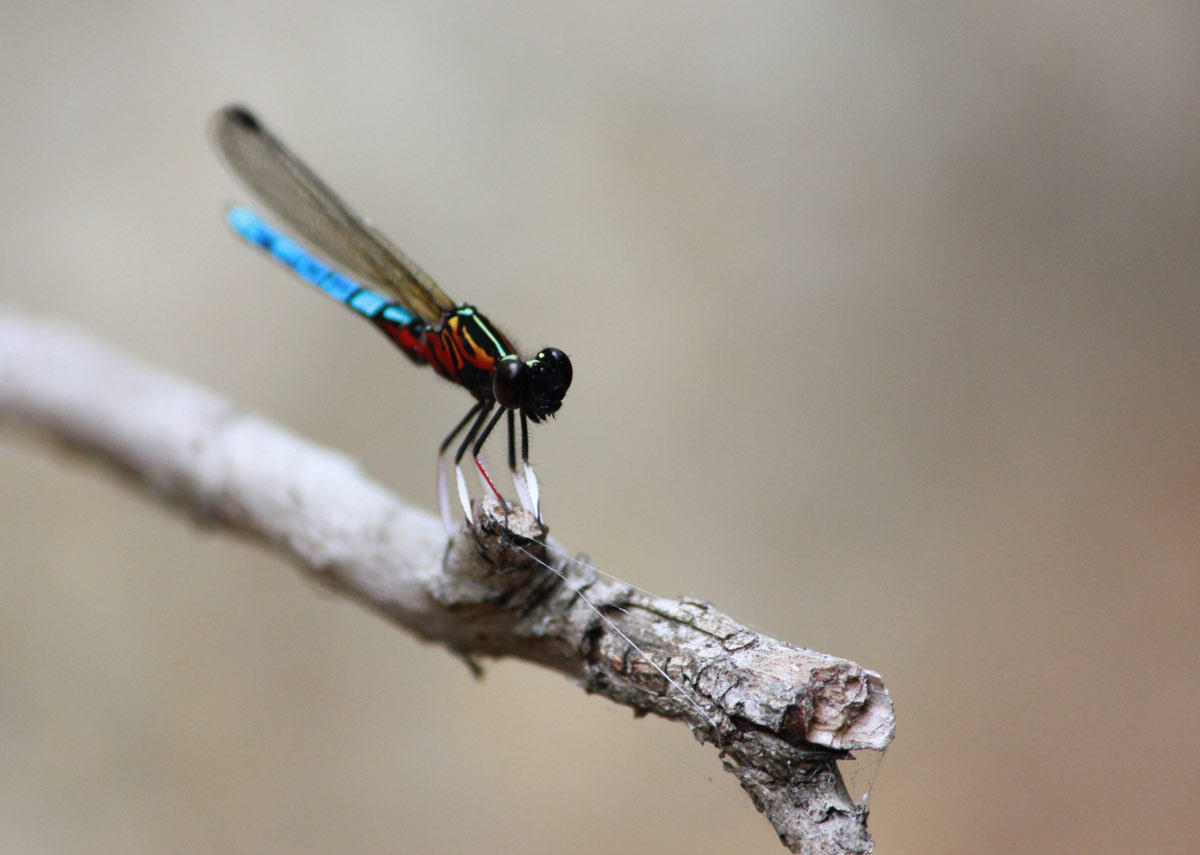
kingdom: Animalia
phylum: Arthropoda
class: Insecta
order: Odonata
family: Chlorocyphidae
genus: Platycypha
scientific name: Platycypha caligata
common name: Dancing jewel
